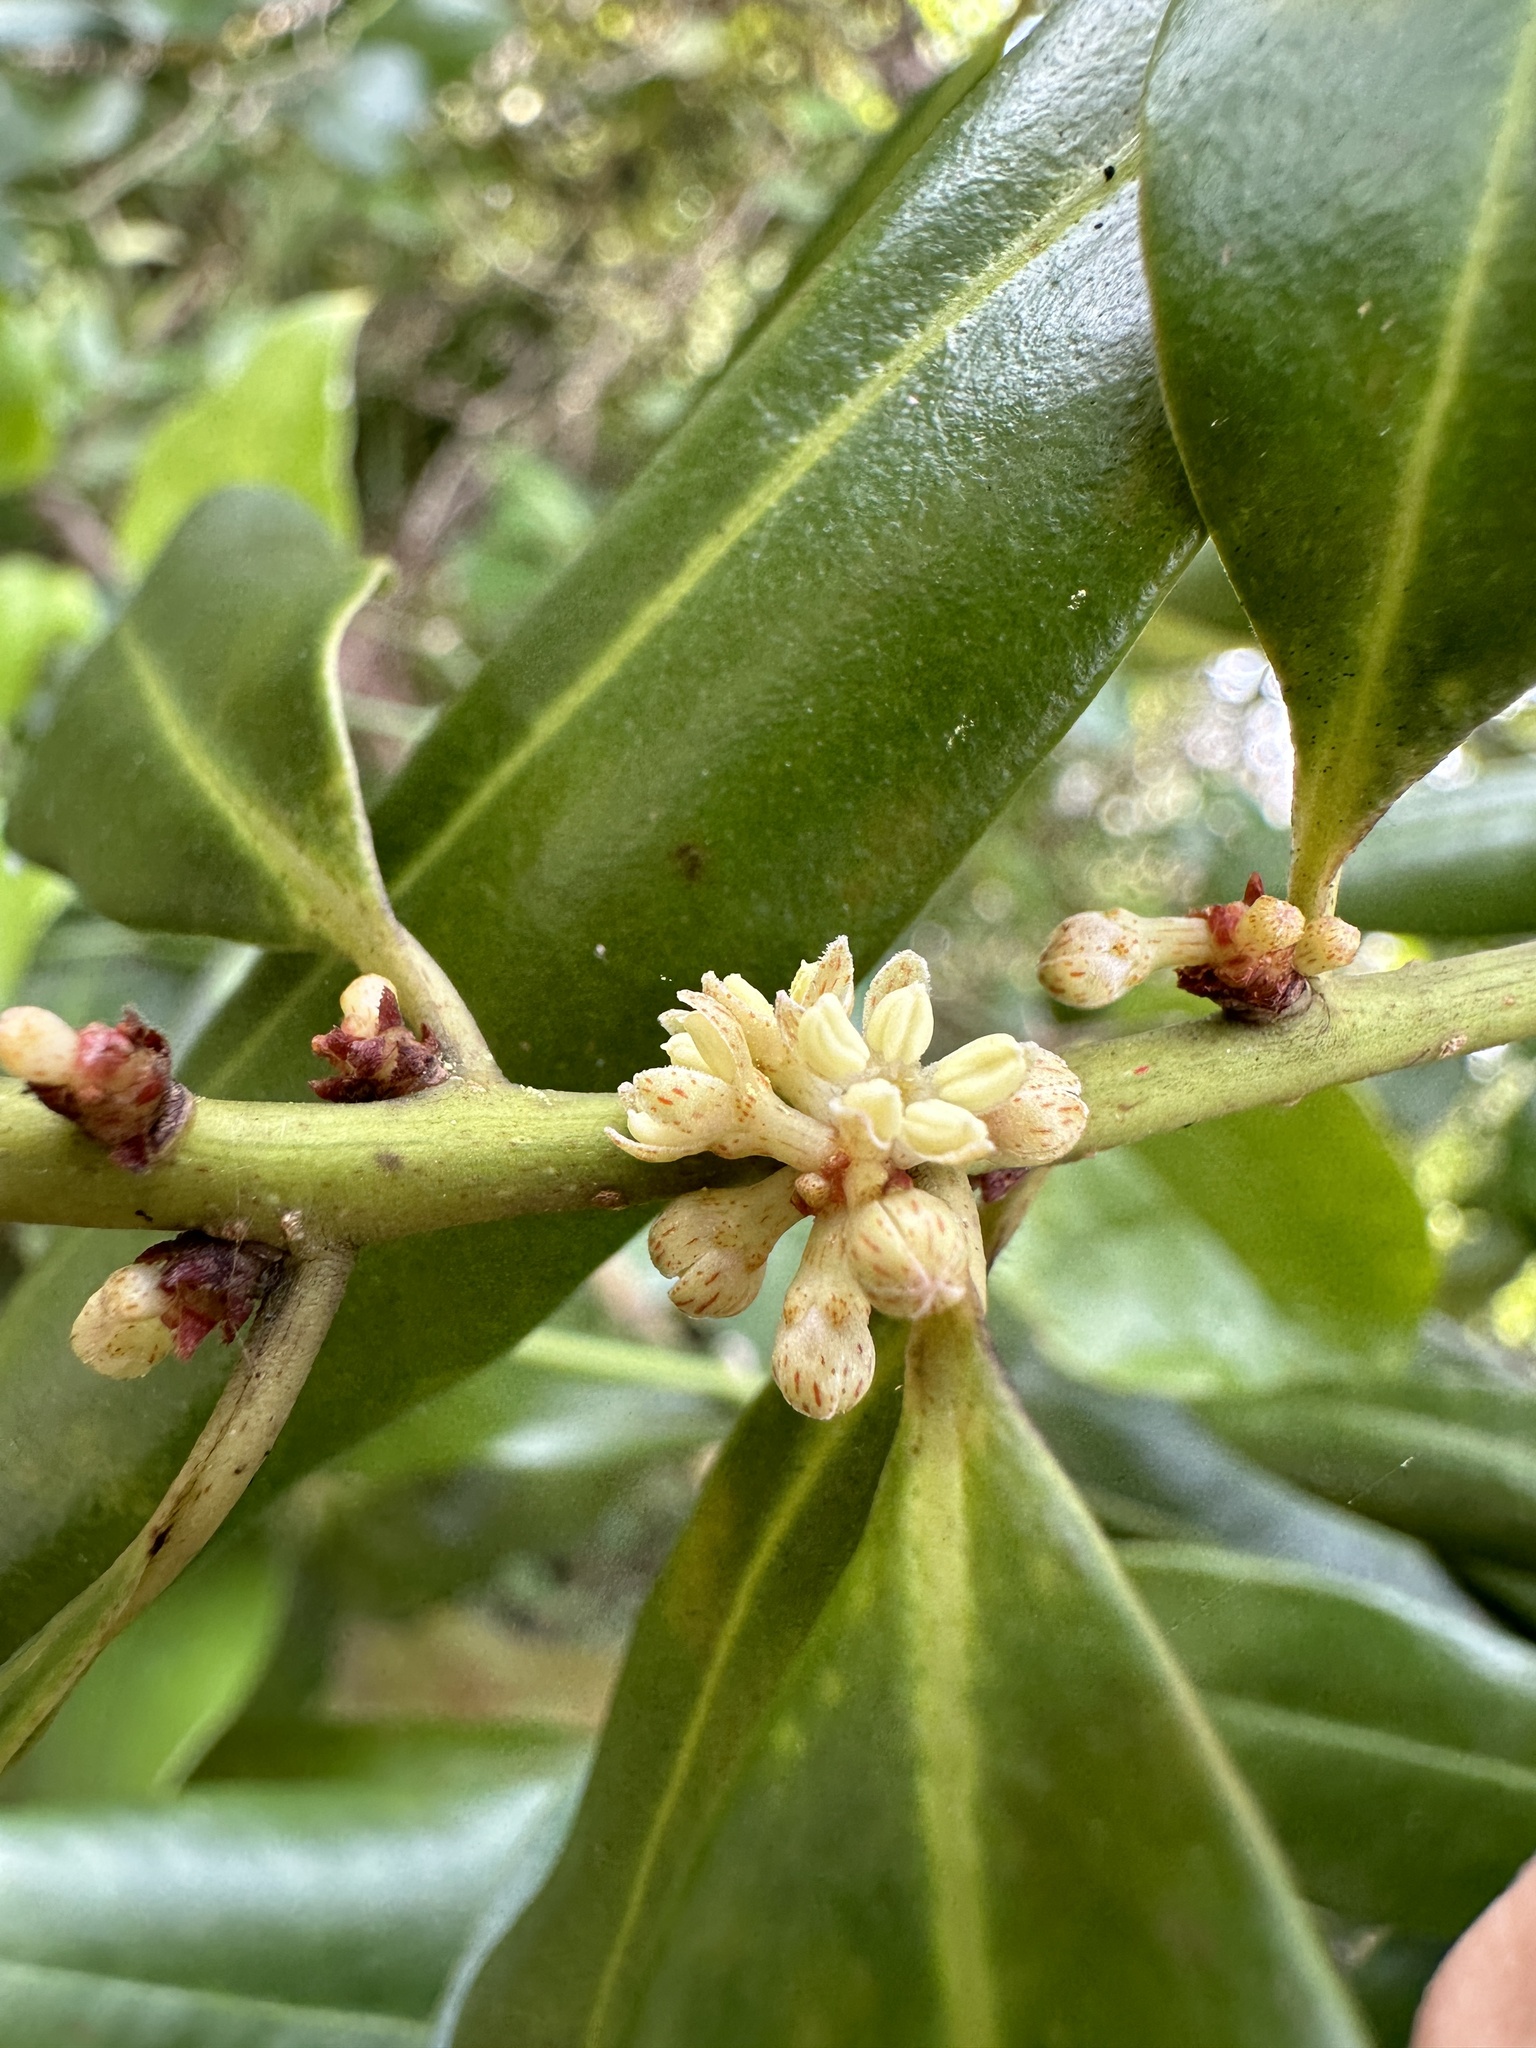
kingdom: Plantae
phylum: Tracheophyta
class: Magnoliopsida
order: Ericales
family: Primulaceae
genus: Myrsine
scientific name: Myrsine floridana
